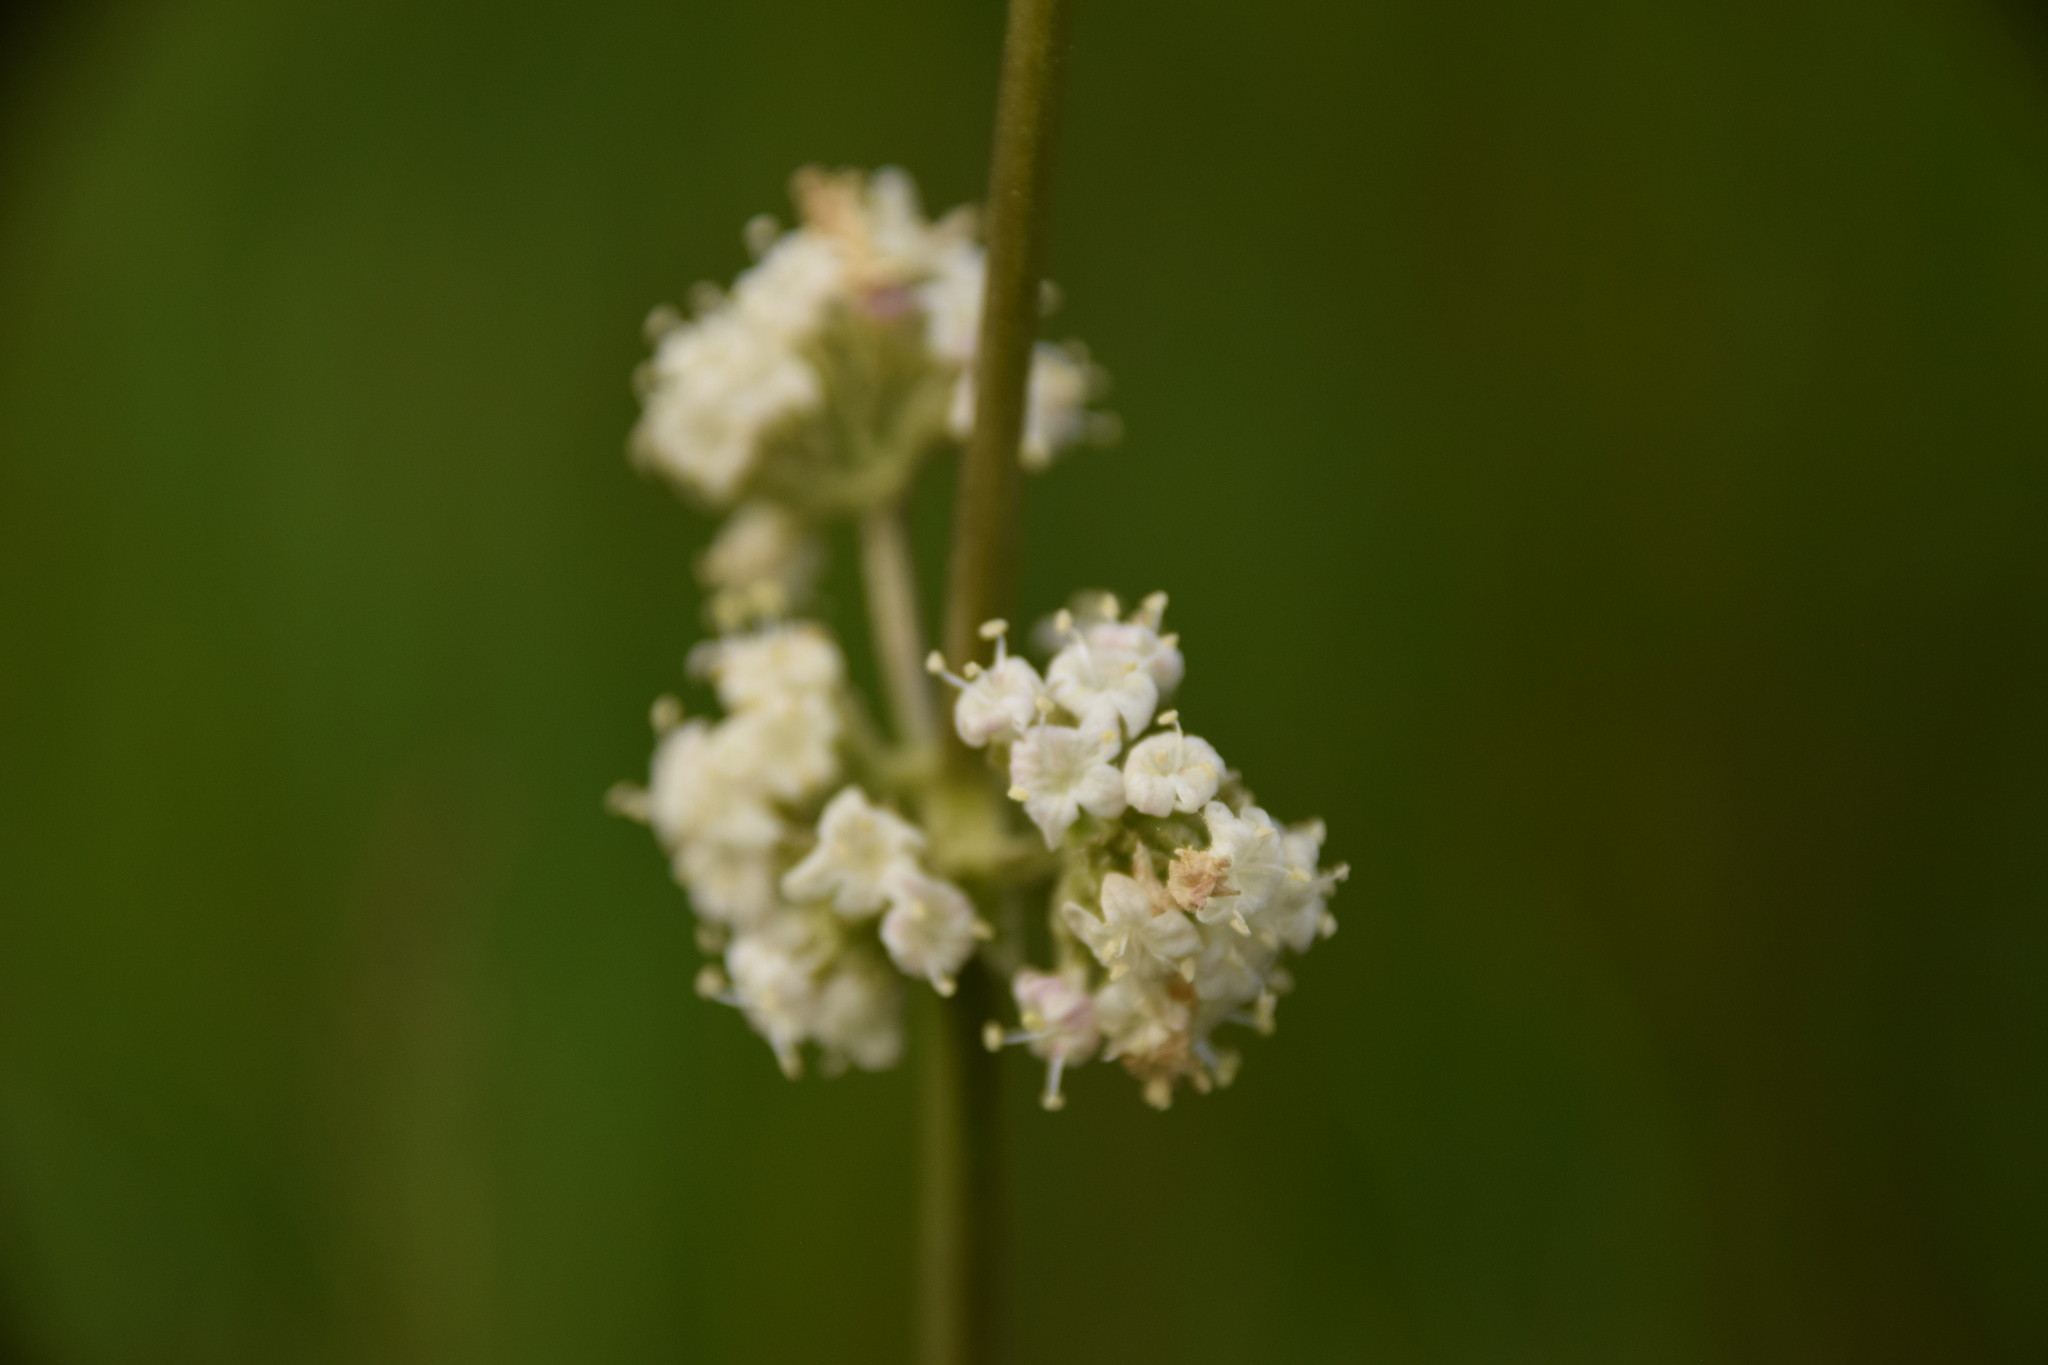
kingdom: Plantae
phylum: Tracheophyta
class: Magnoliopsida
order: Dipsacales
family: Caprifoliaceae
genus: Valeriana
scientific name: Valeriana edulis
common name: Taproot valerian
